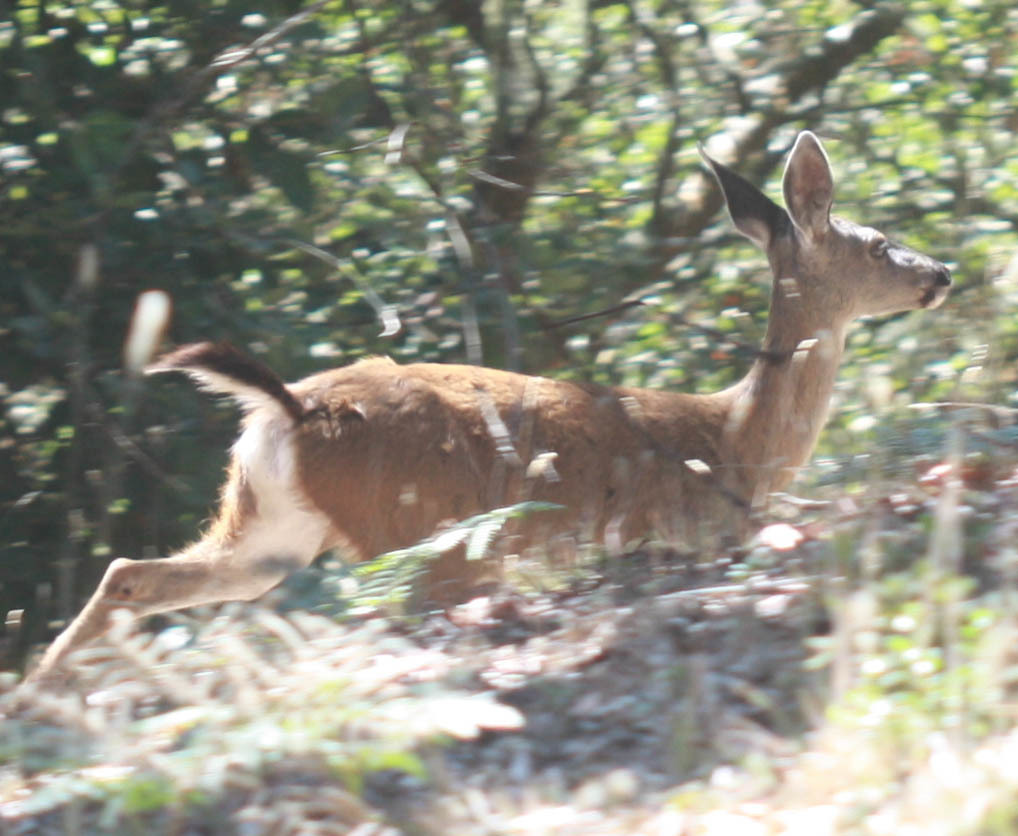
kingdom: Animalia
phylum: Chordata
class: Mammalia
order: Artiodactyla
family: Cervidae
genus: Odocoileus
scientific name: Odocoileus hemionus
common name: Mule deer
